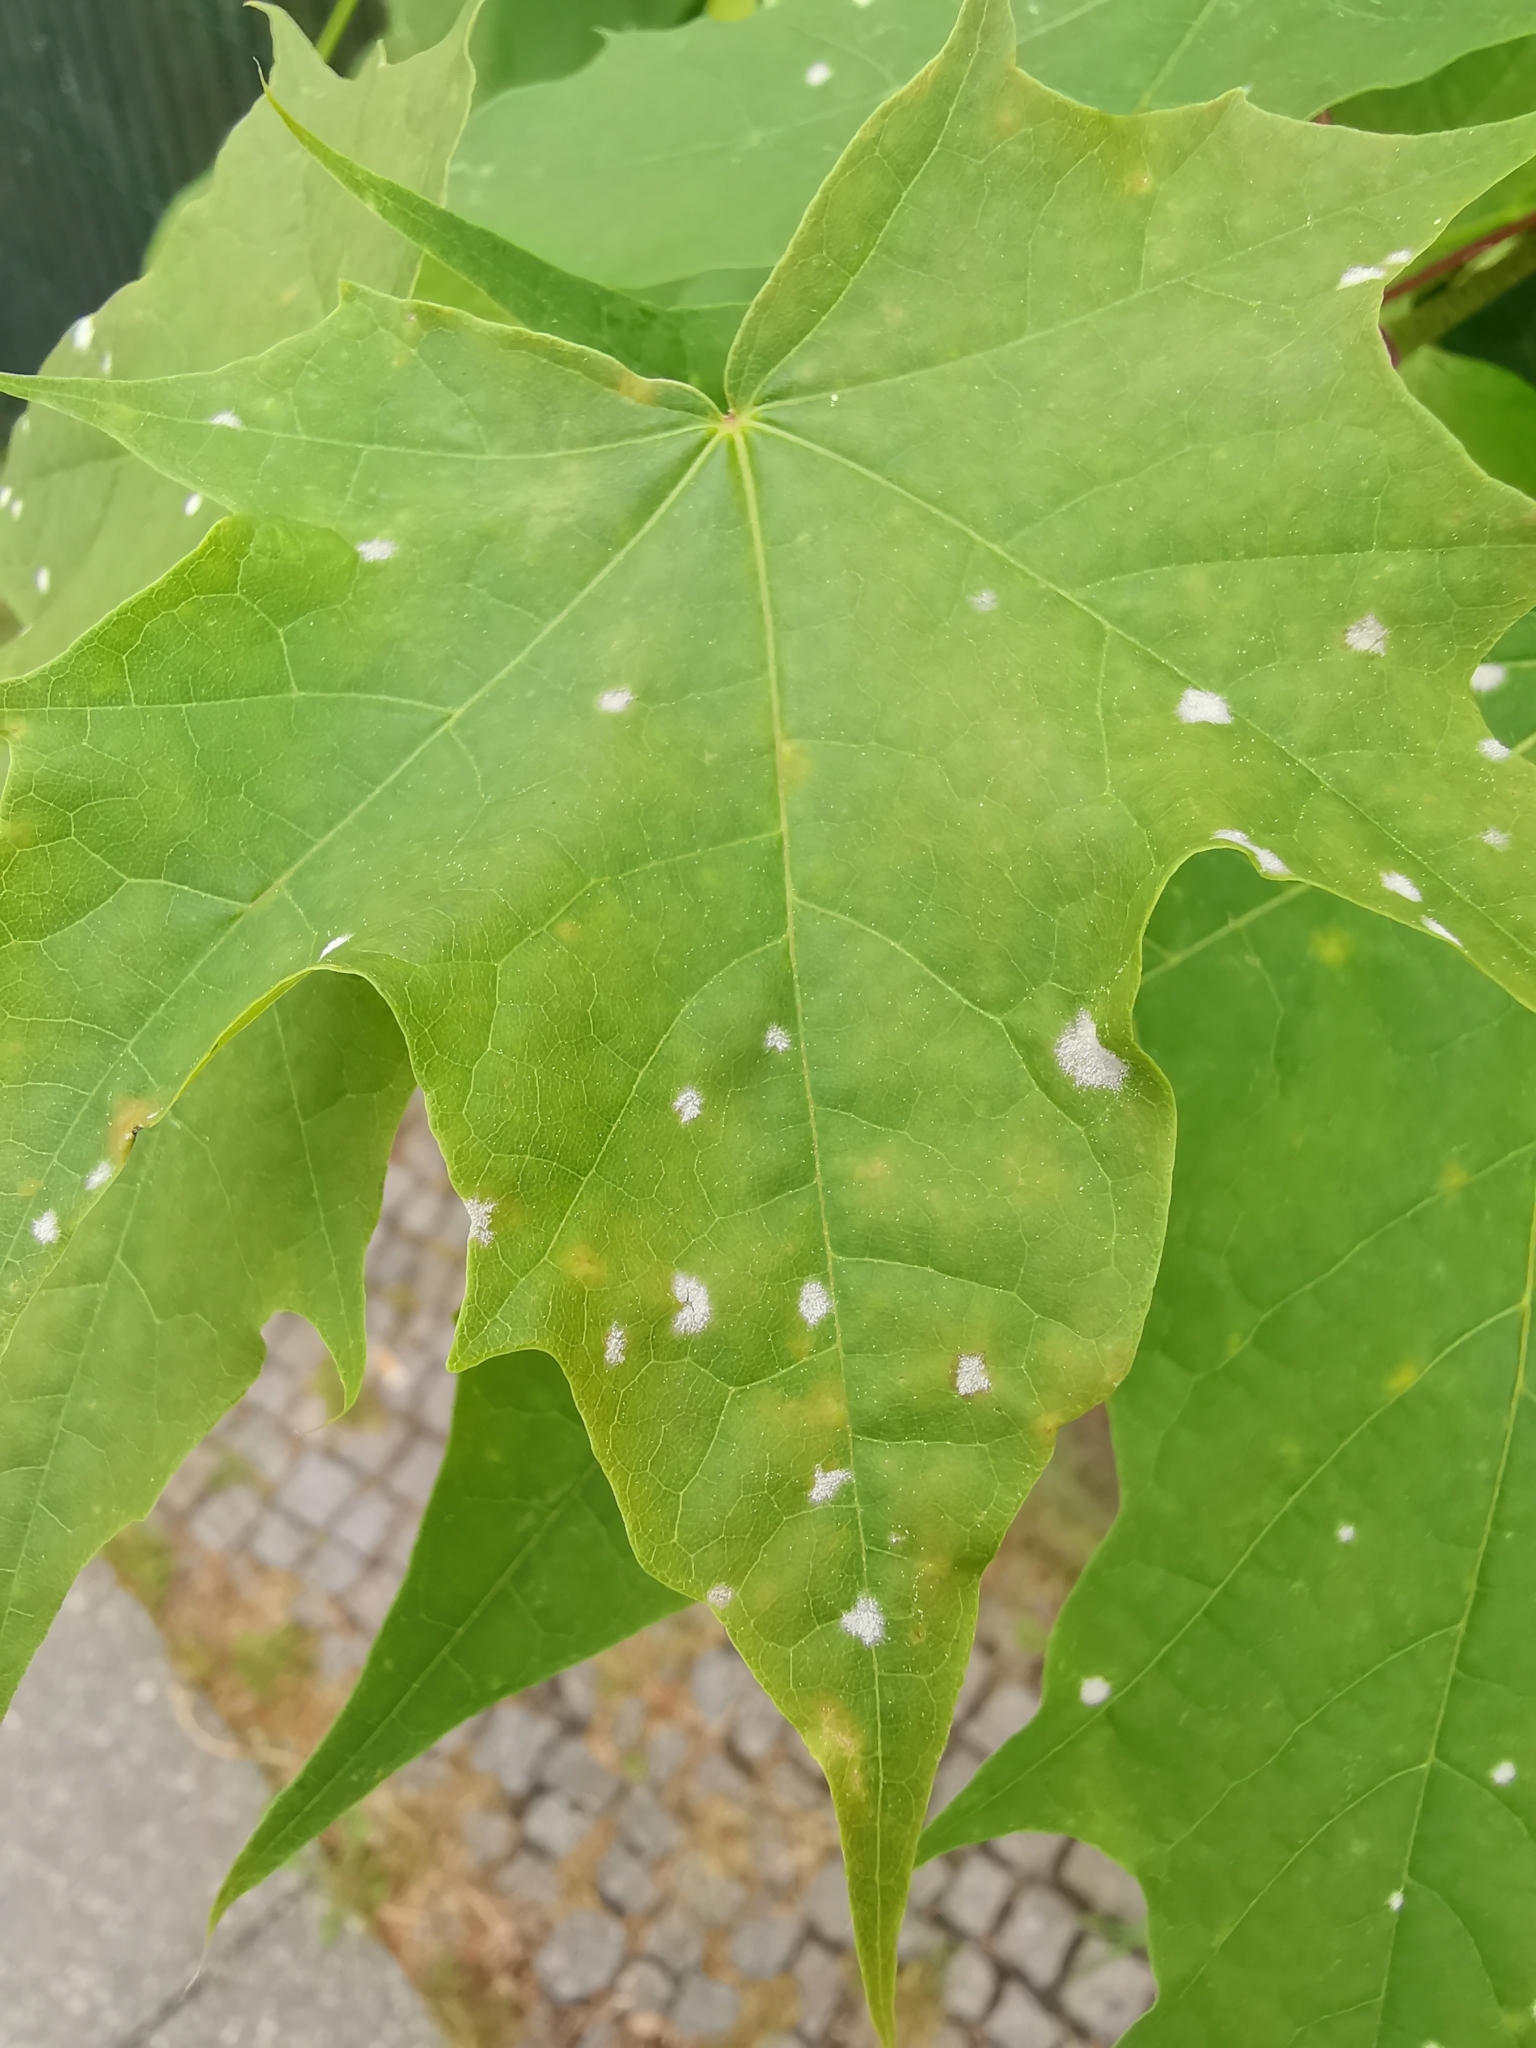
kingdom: Fungi
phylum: Ascomycota
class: Leotiomycetes
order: Helotiales
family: Erysiphaceae
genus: Sawadaea
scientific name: Sawadaea tulasnei
